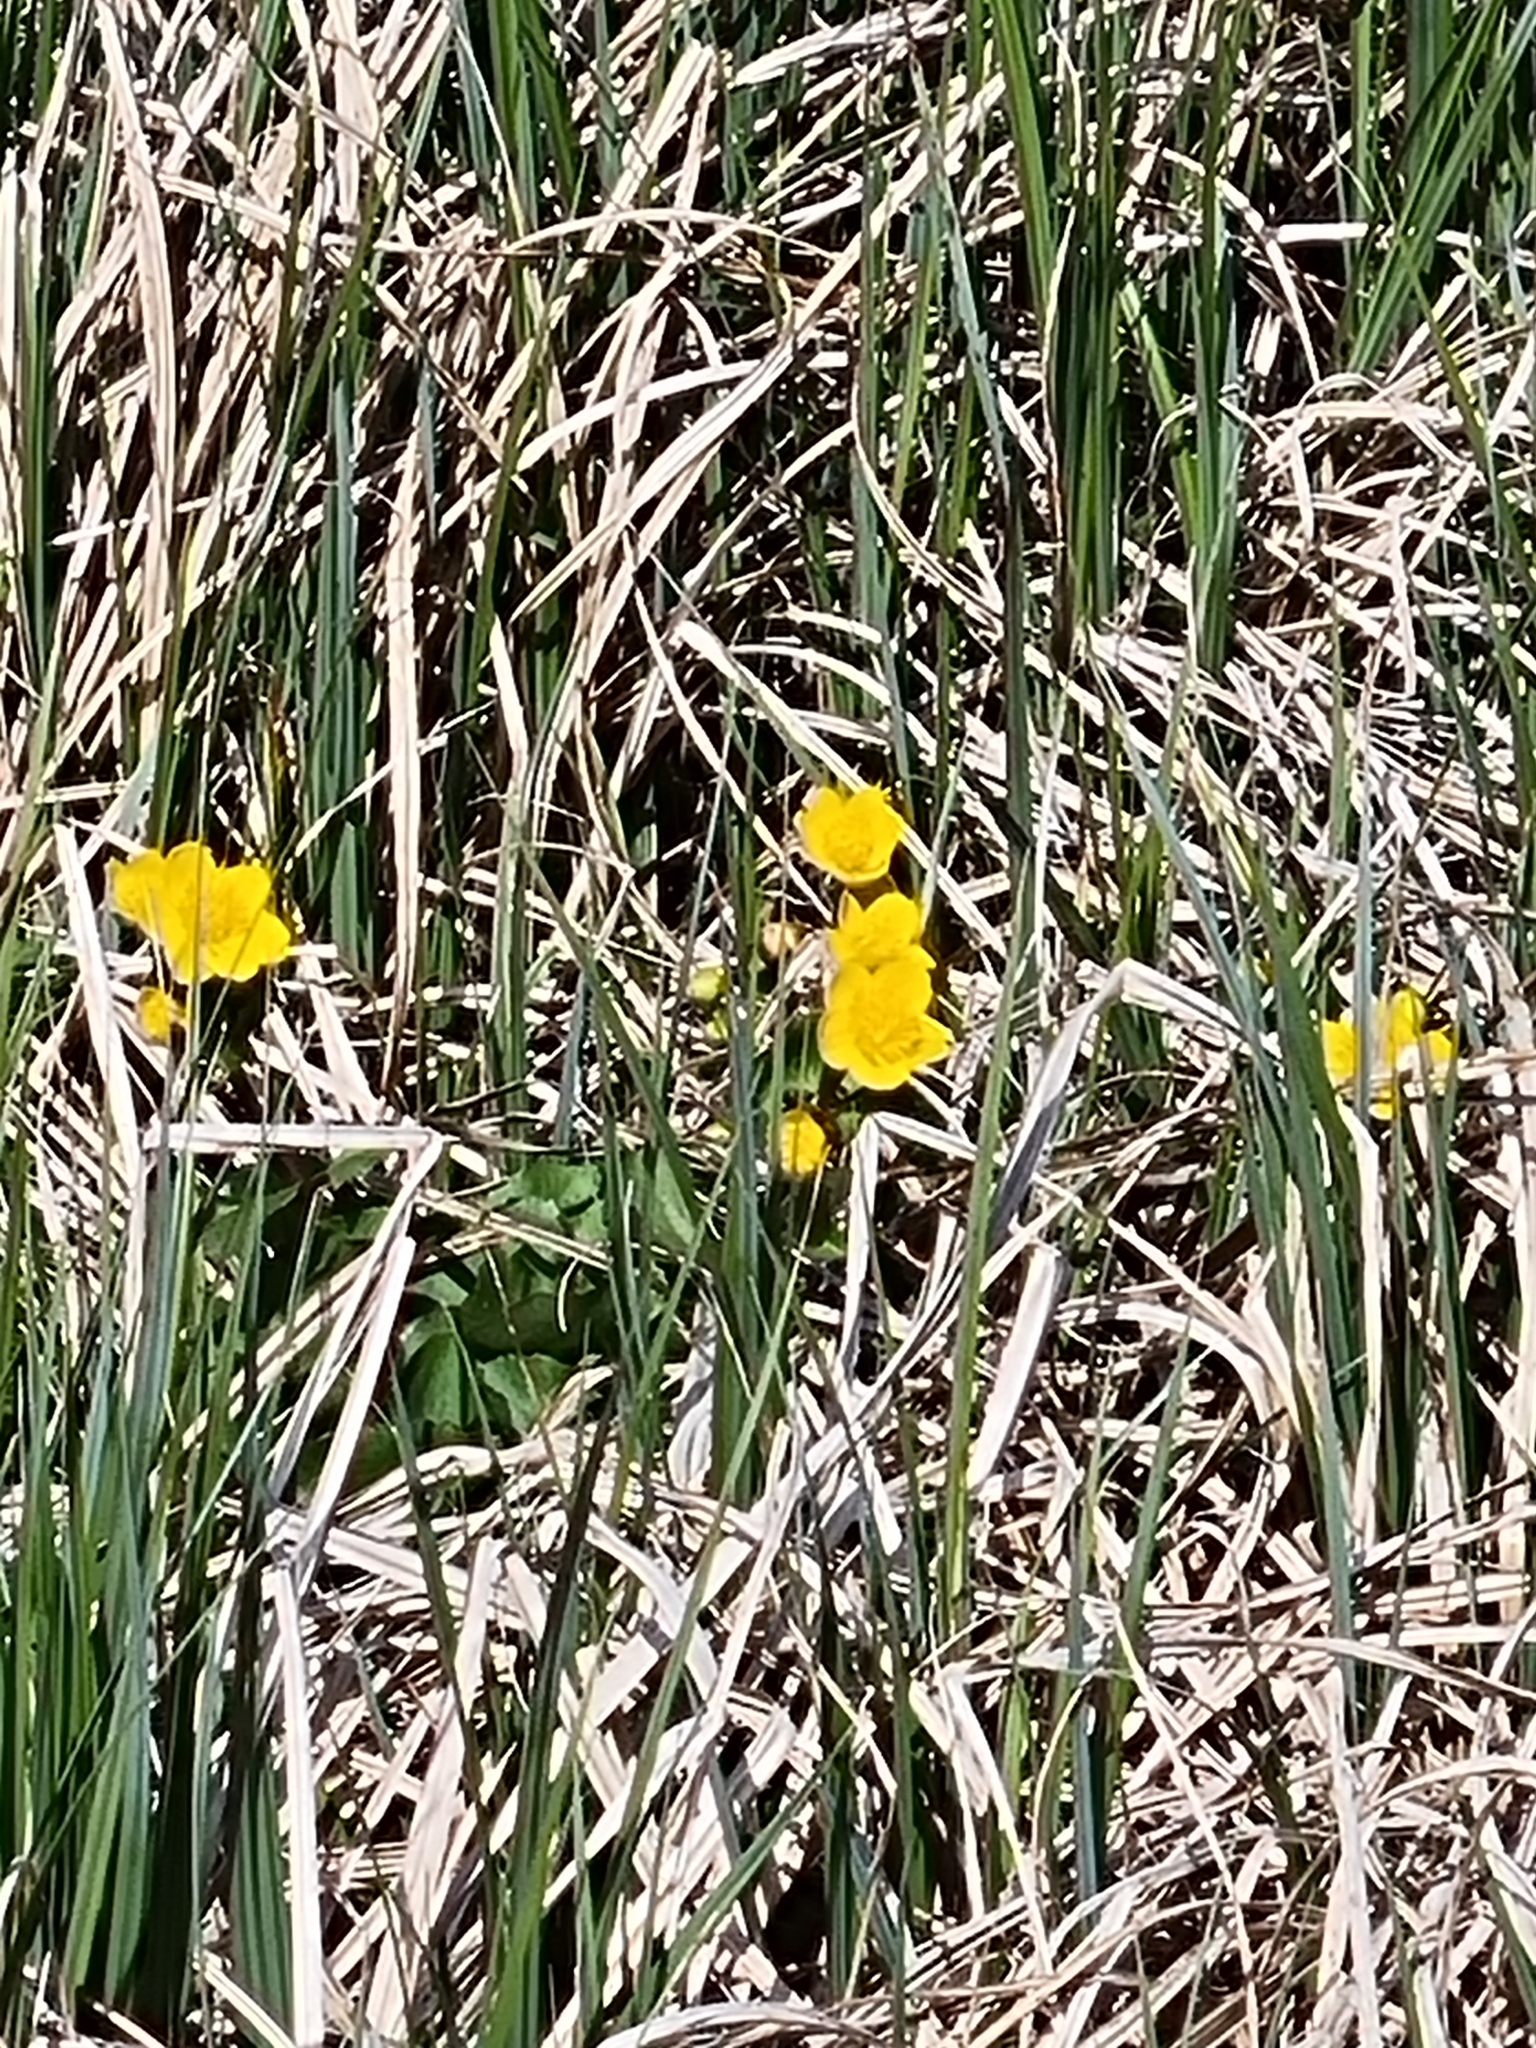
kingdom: Plantae
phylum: Tracheophyta
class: Magnoliopsida
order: Ranunculales
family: Ranunculaceae
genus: Caltha
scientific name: Caltha palustris
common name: Marsh marigold
